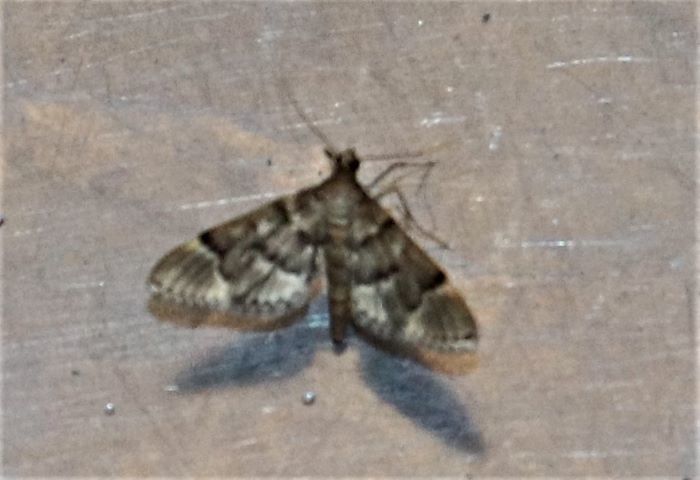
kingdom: Animalia
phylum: Arthropoda
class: Insecta
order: Lepidoptera
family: Crambidae
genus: Duponchelia
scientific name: Duponchelia fovealis
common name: Crambid moth
